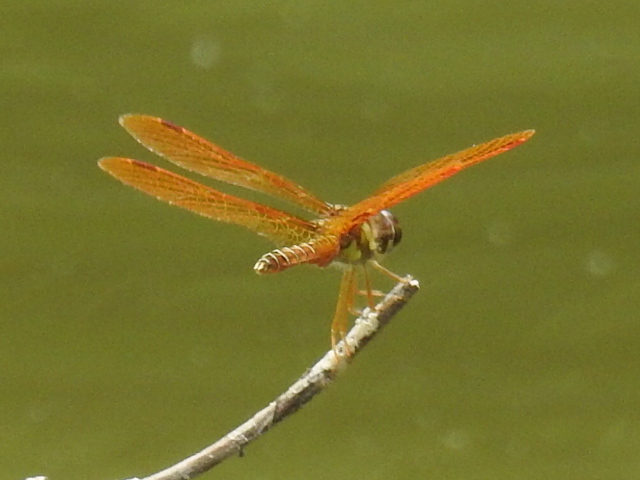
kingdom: Animalia
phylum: Arthropoda
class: Insecta
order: Odonata
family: Libellulidae
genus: Perithemis
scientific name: Perithemis tenera
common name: Eastern amberwing
